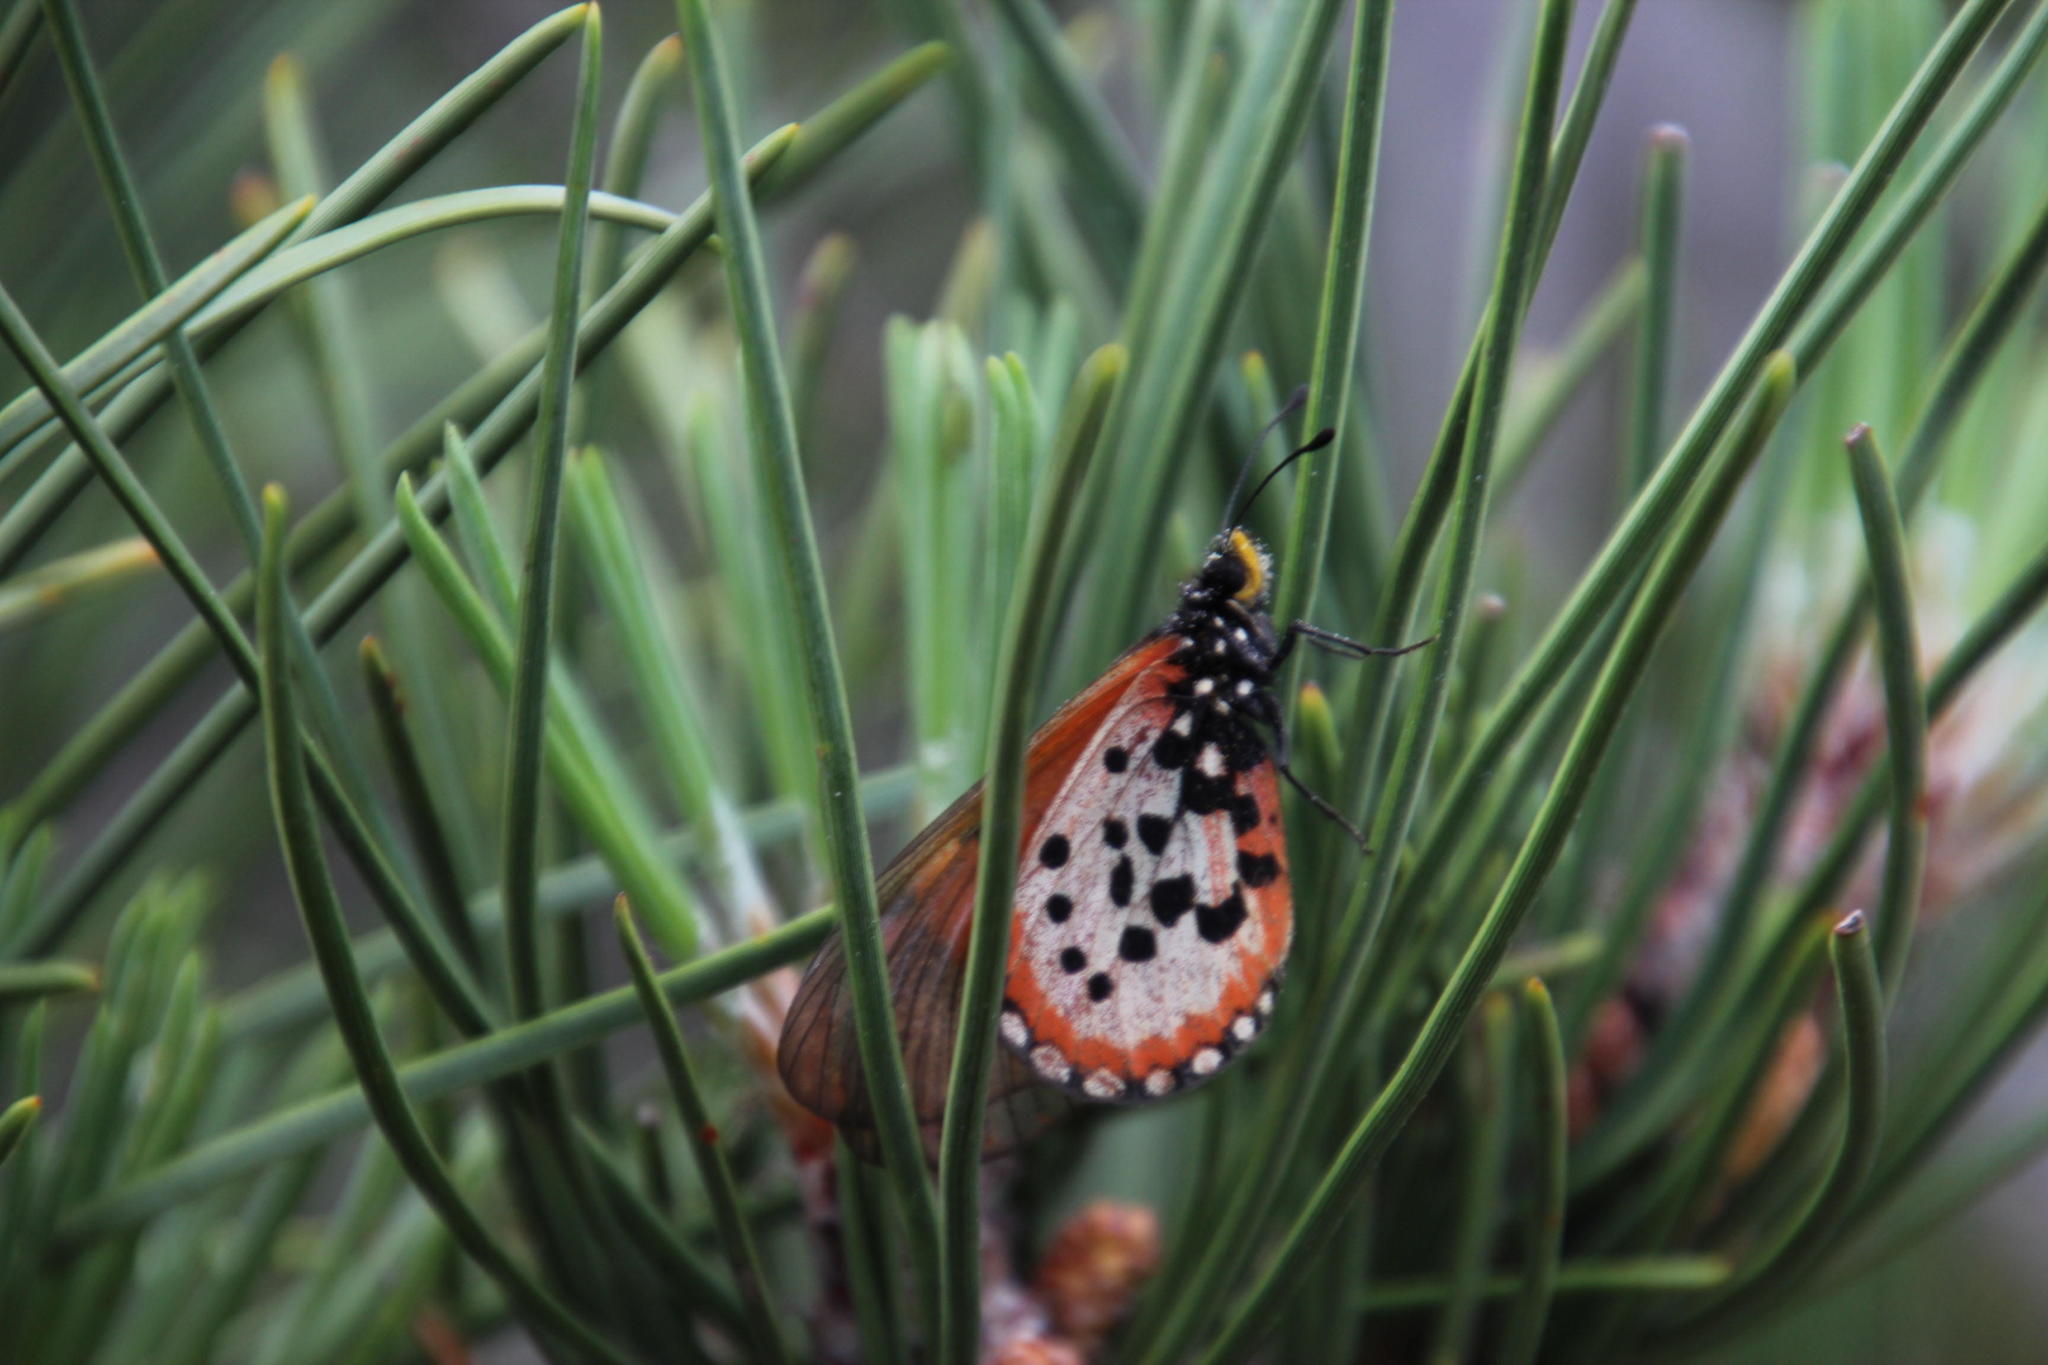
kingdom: Animalia
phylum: Arthropoda
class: Insecta
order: Lepidoptera
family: Nymphalidae
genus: Acraea
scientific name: Acraea horta
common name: Garden acraea
